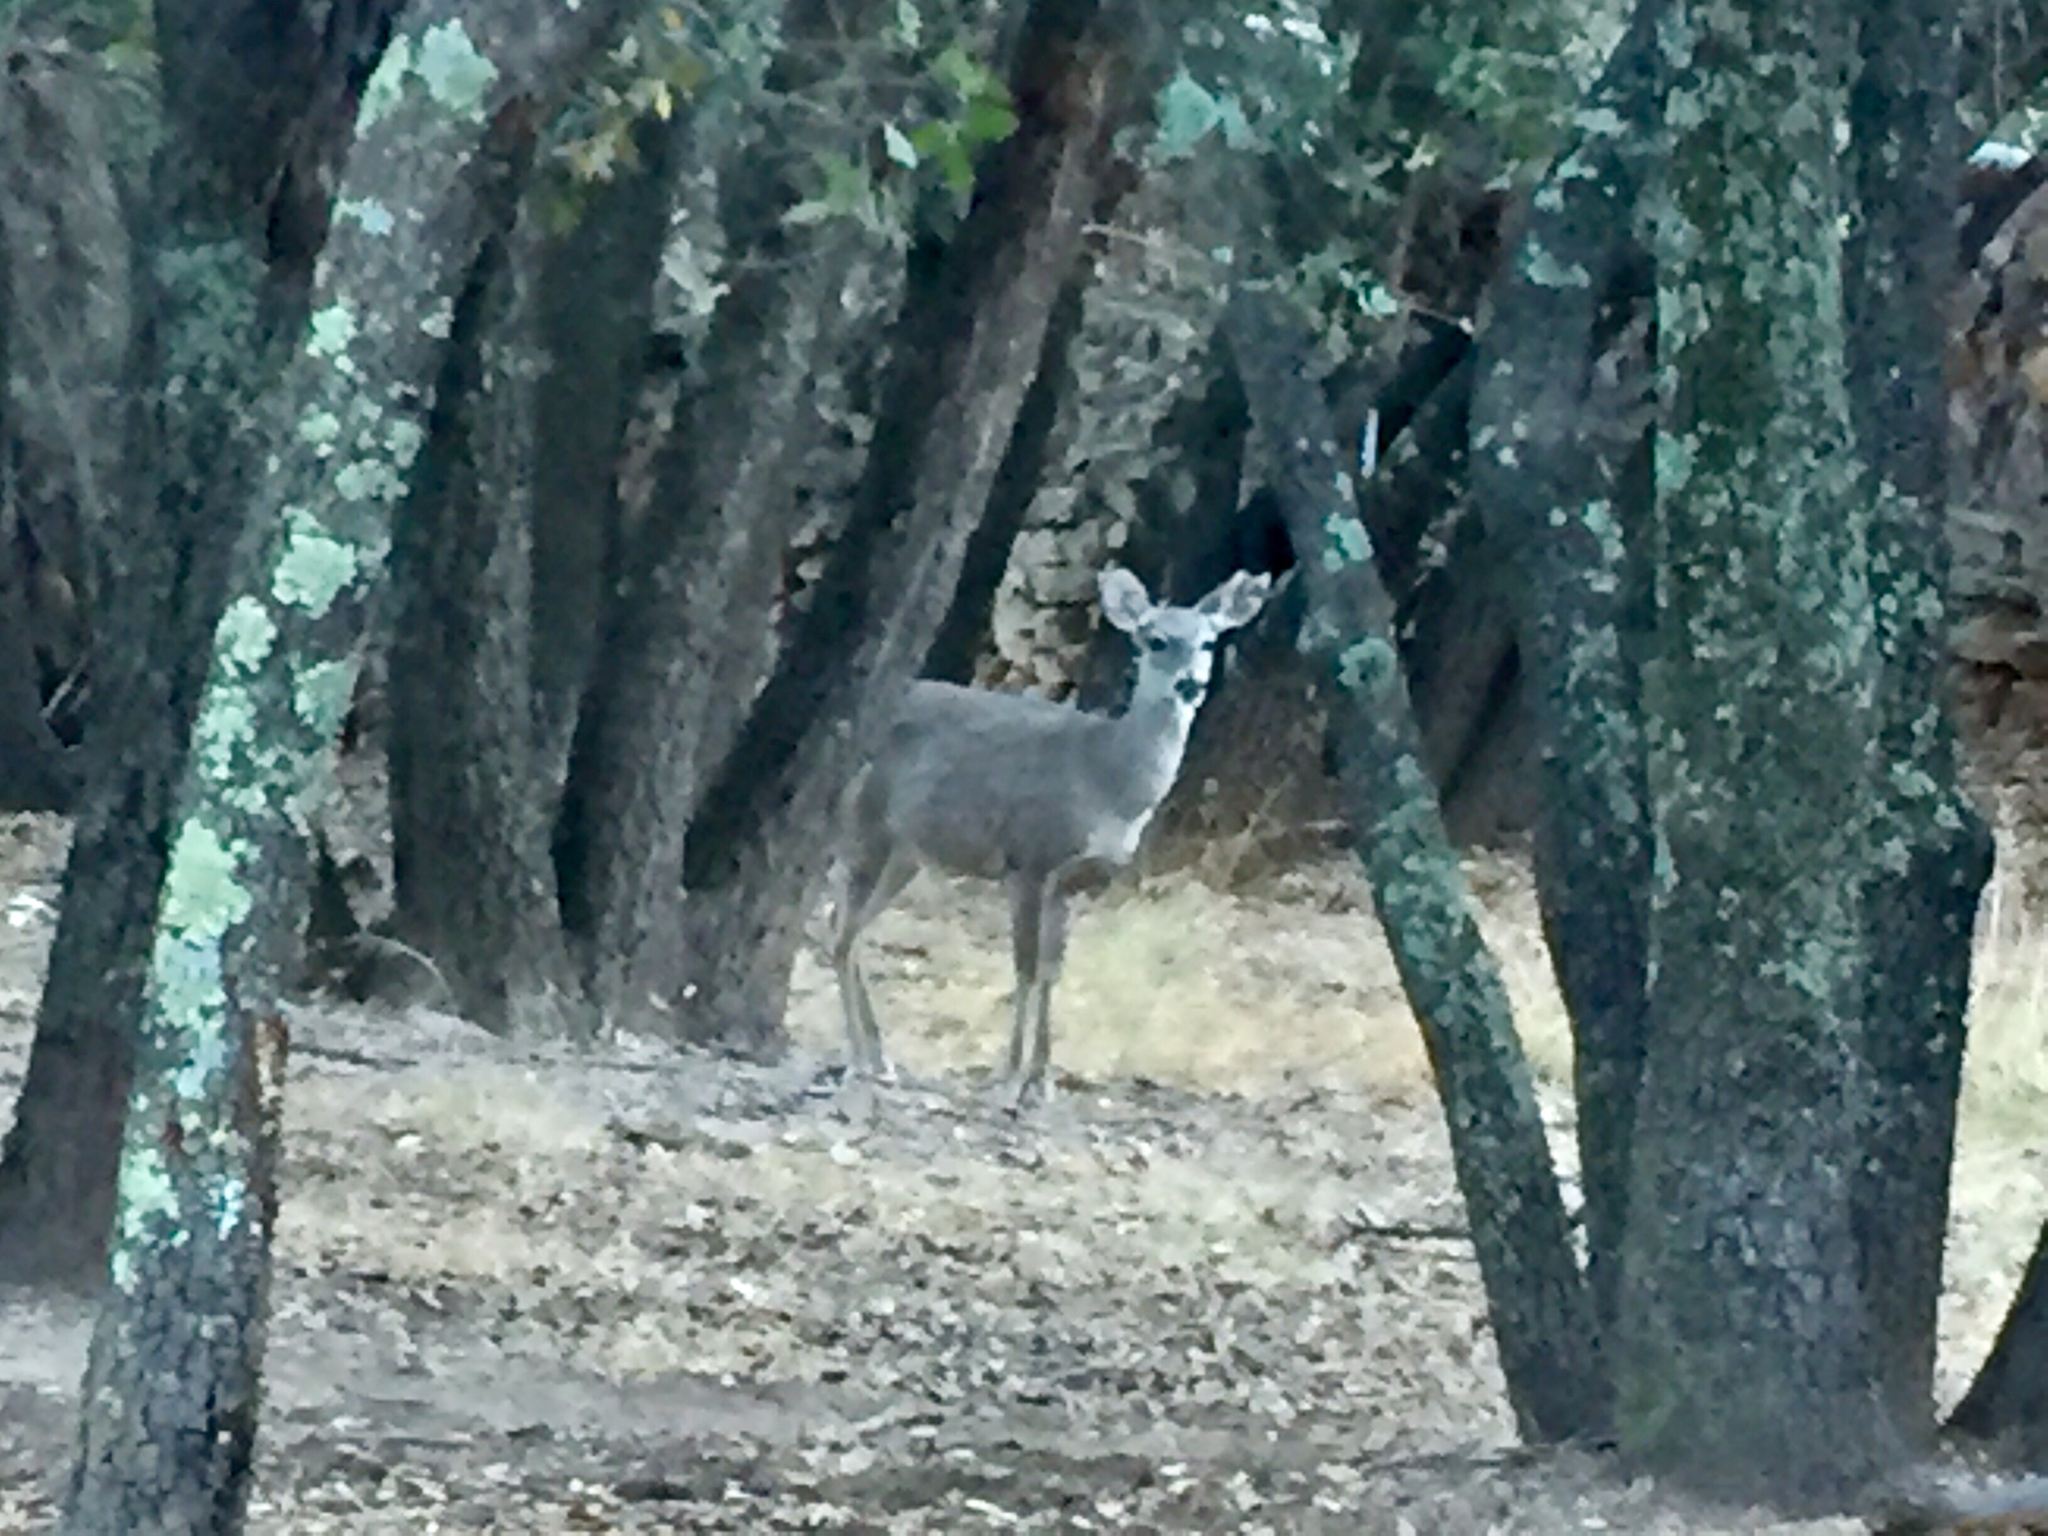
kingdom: Animalia
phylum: Chordata
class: Mammalia
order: Artiodactyla
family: Cervidae
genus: Odocoileus
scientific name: Odocoileus virginianus
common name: White-tailed deer
